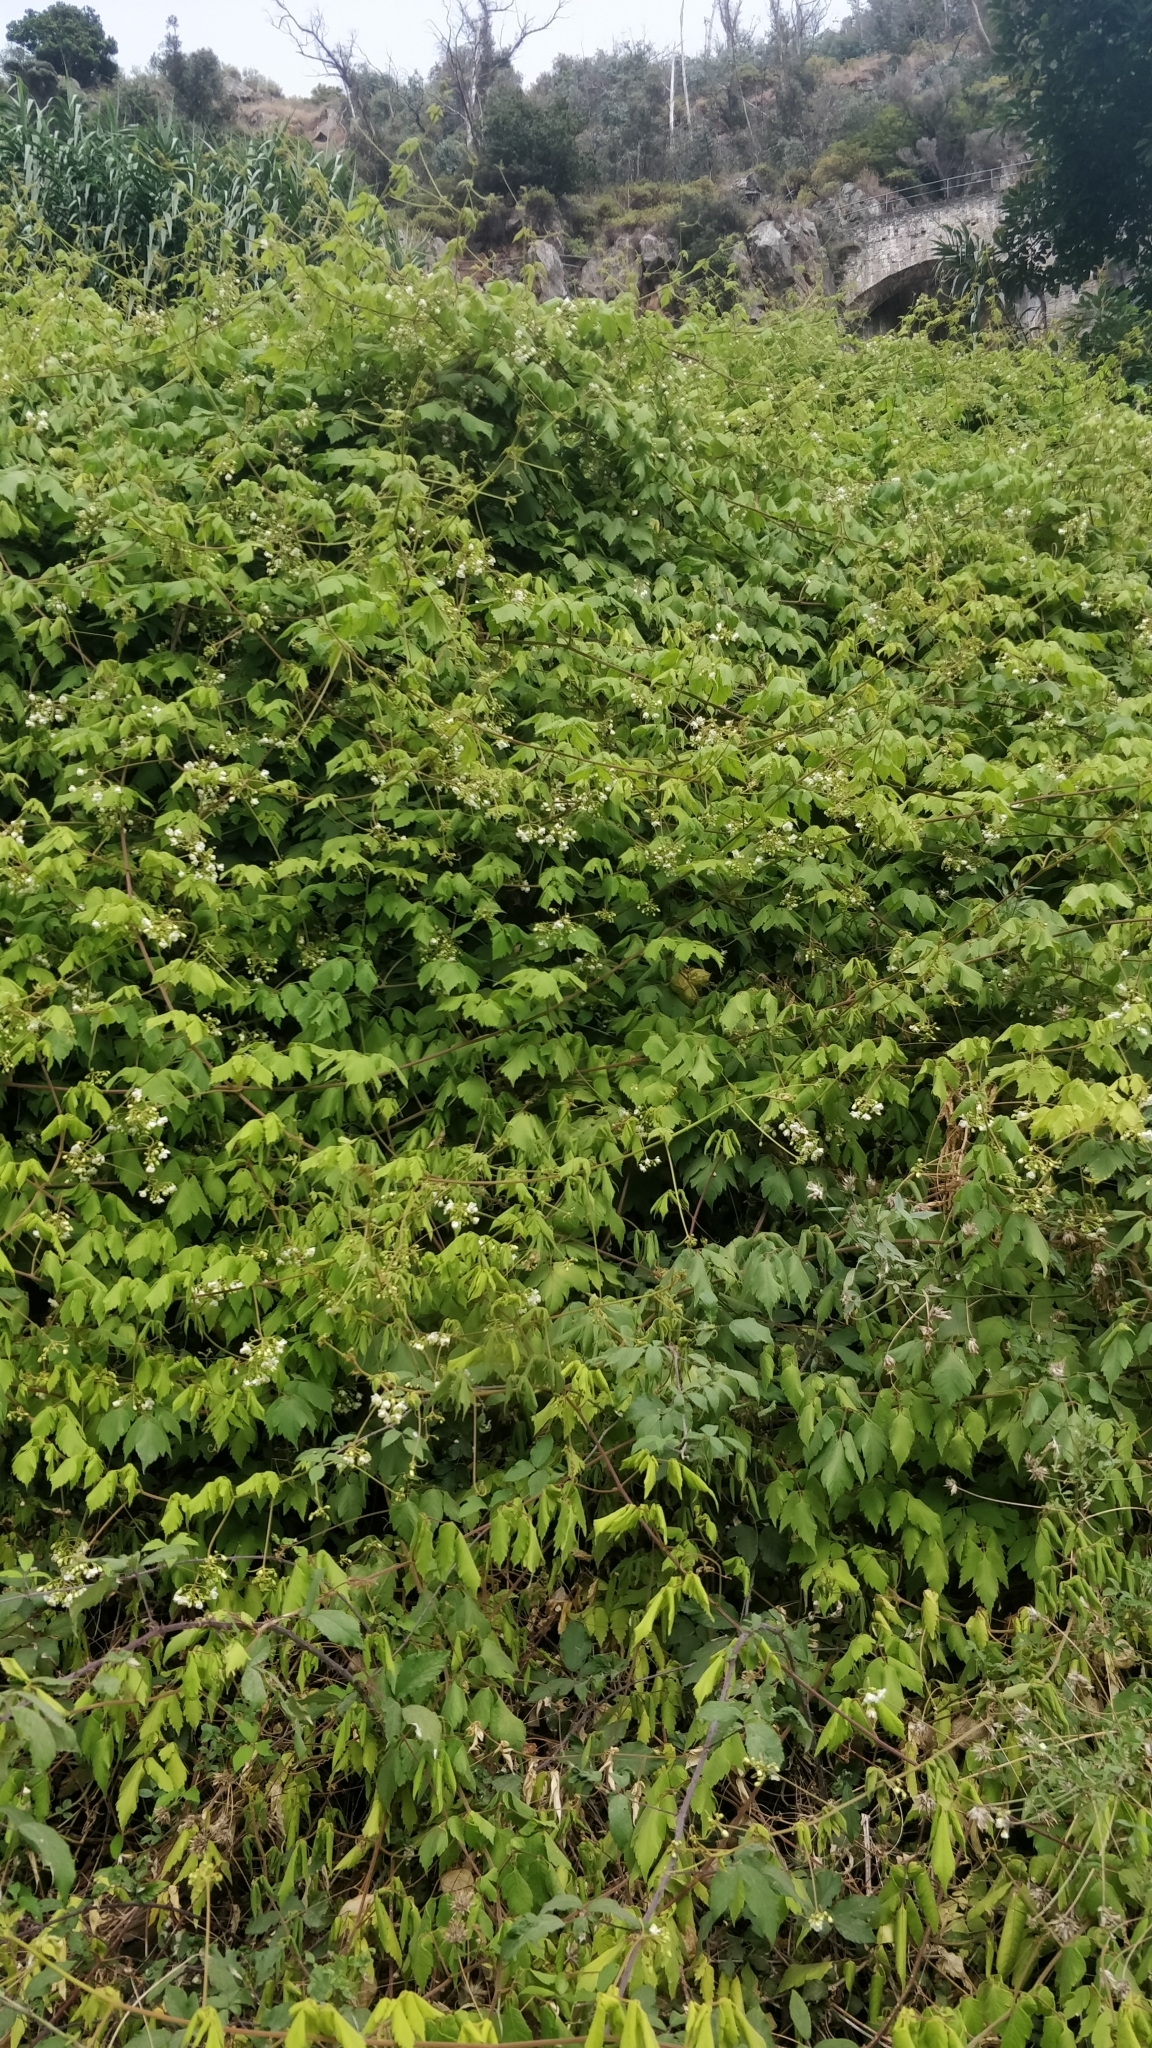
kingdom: Plantae
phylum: Tracheophyta
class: Magnoliopsida
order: Sapindales
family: Sapindaceae
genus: Cardiospermum
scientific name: Cardiospermum grandiflorum
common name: Balloon vine
